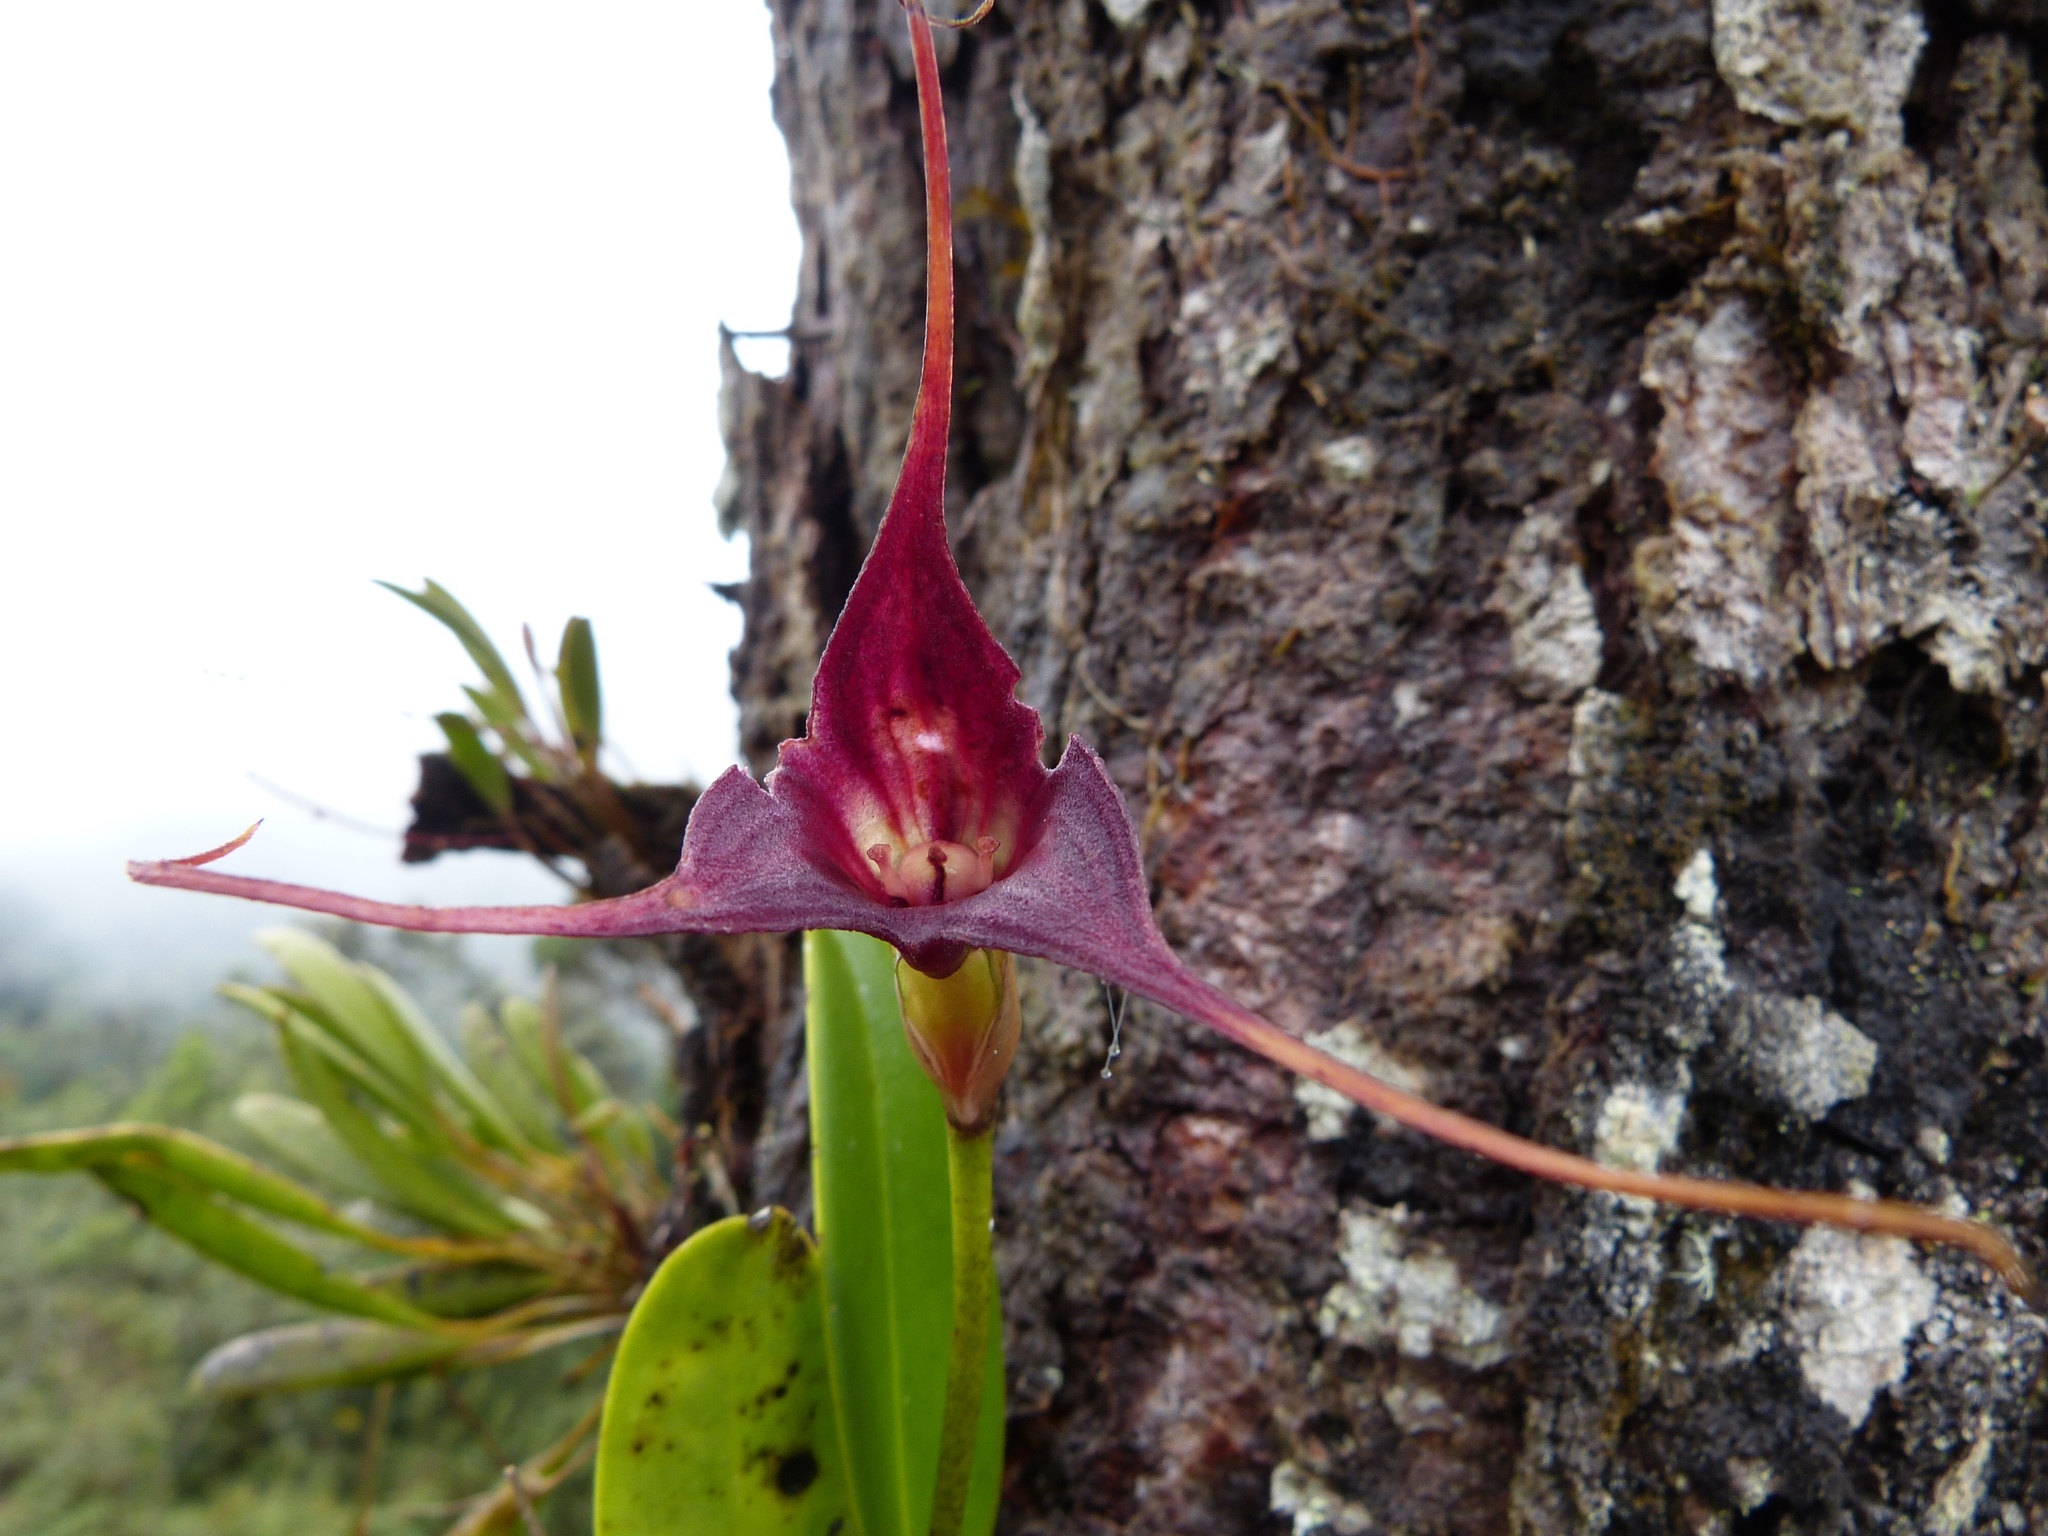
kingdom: Plantae
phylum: Tracheophyta
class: Liliopsida
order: Asparagales
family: Orchidaceae
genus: Masdevallia
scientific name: Masdevallia cucullata
